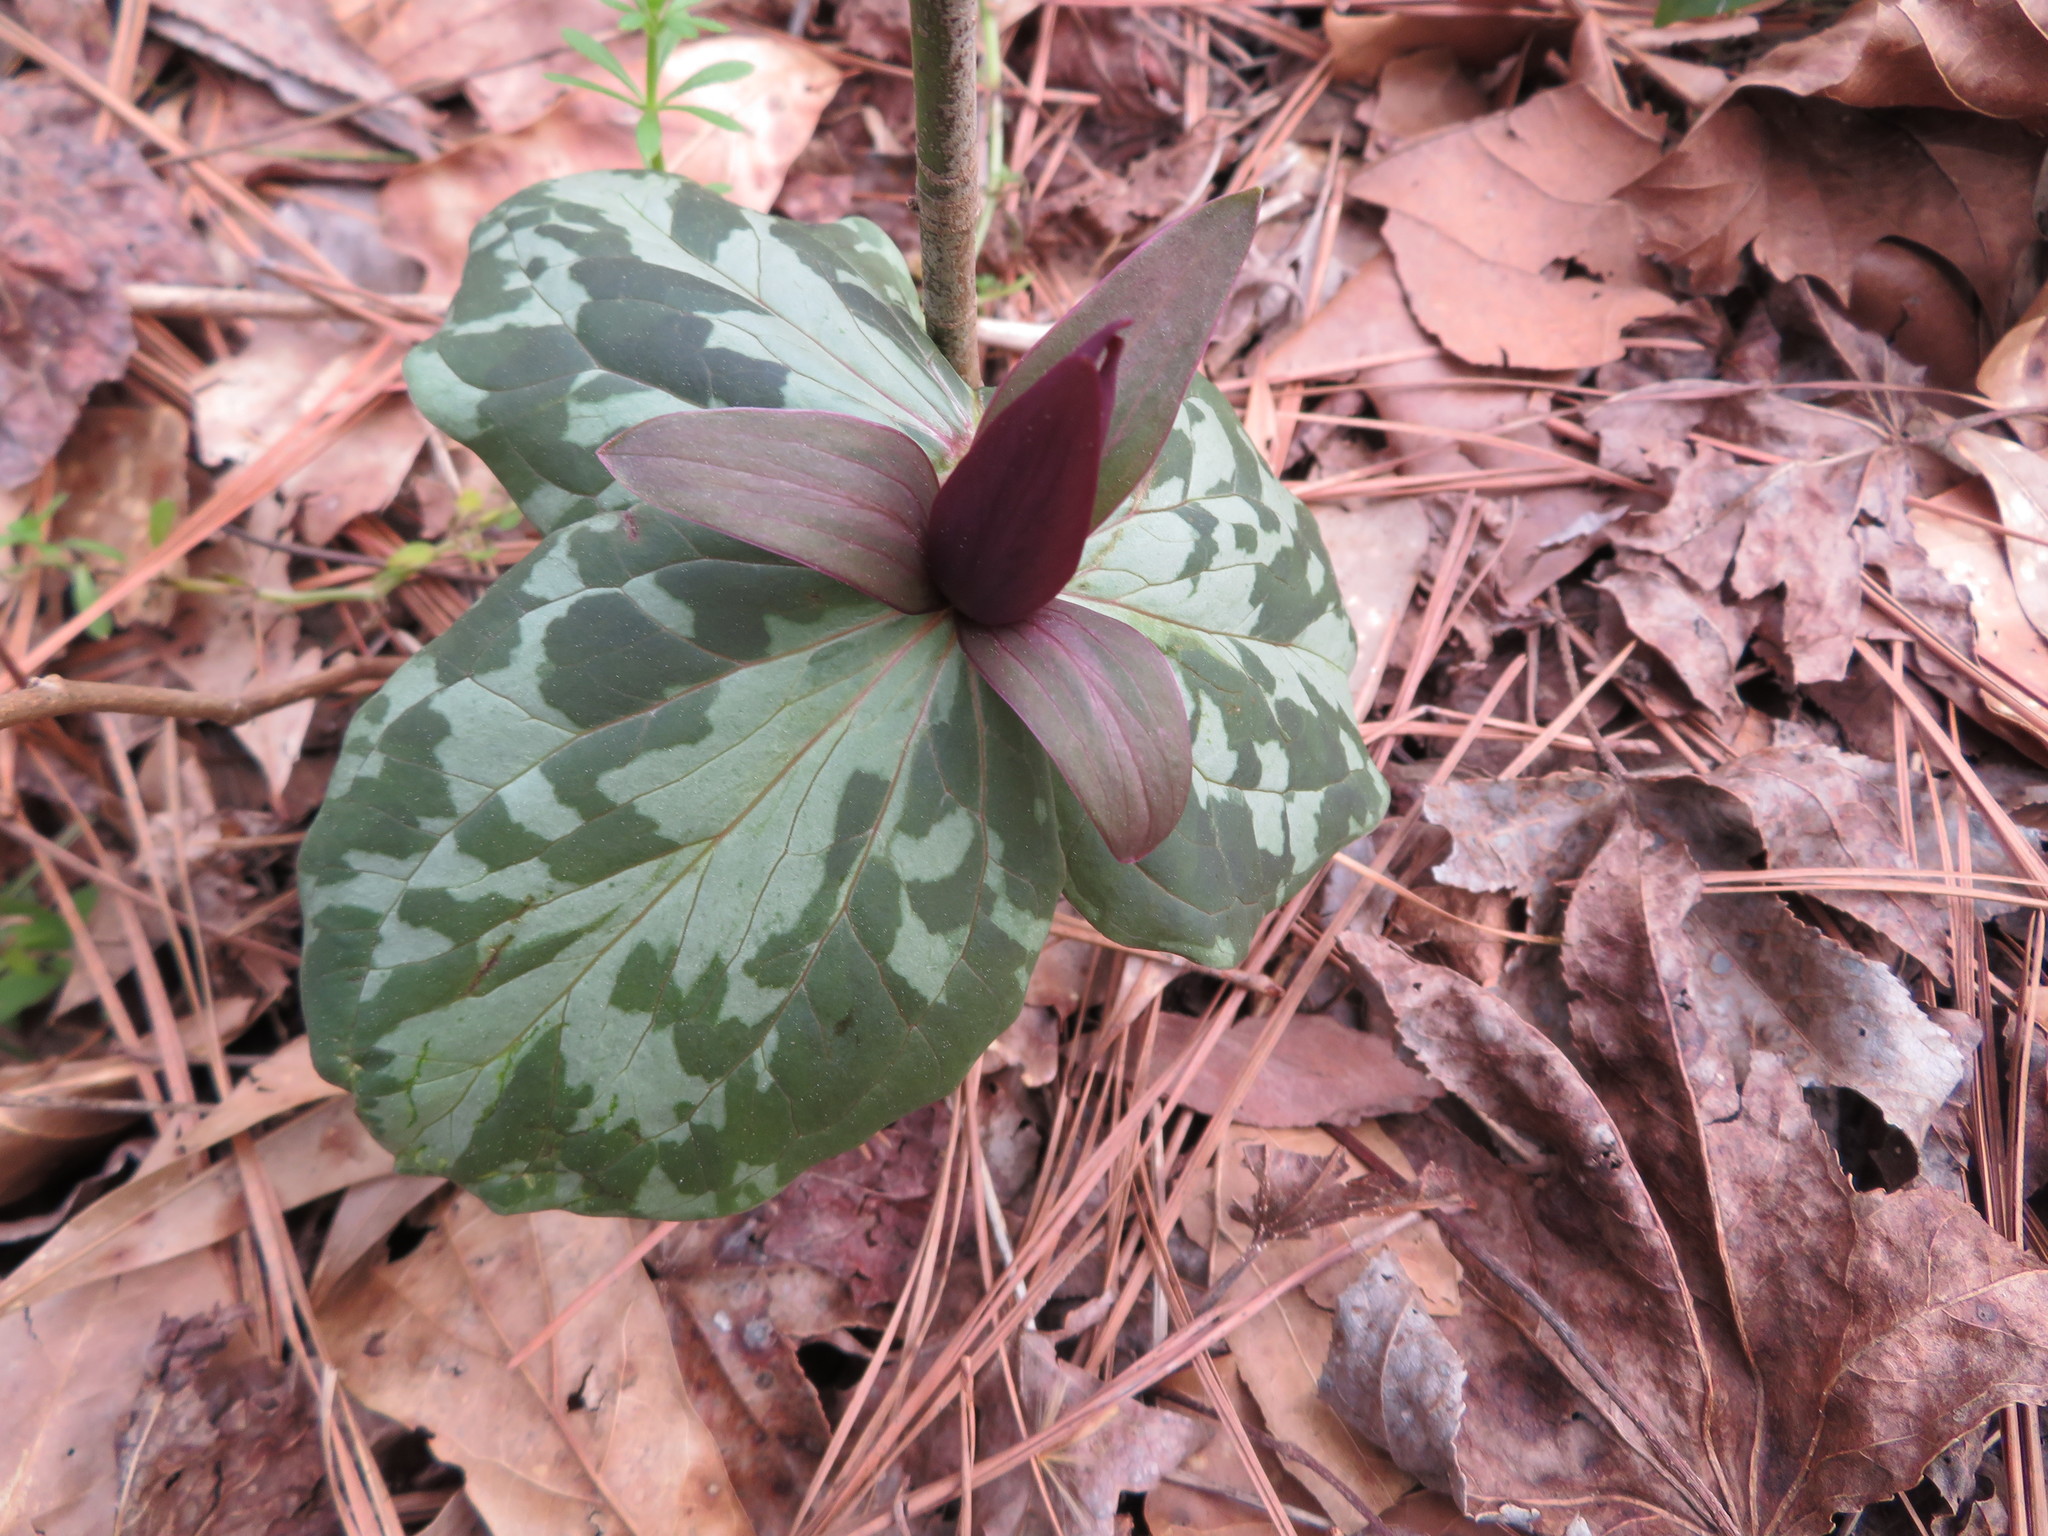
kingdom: Plantae
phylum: Tracheophyta
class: Liliopsida
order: Liliales
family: Melanthiaceae
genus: Trillium
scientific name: Trillium cuneatum
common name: Cuneate trillium
